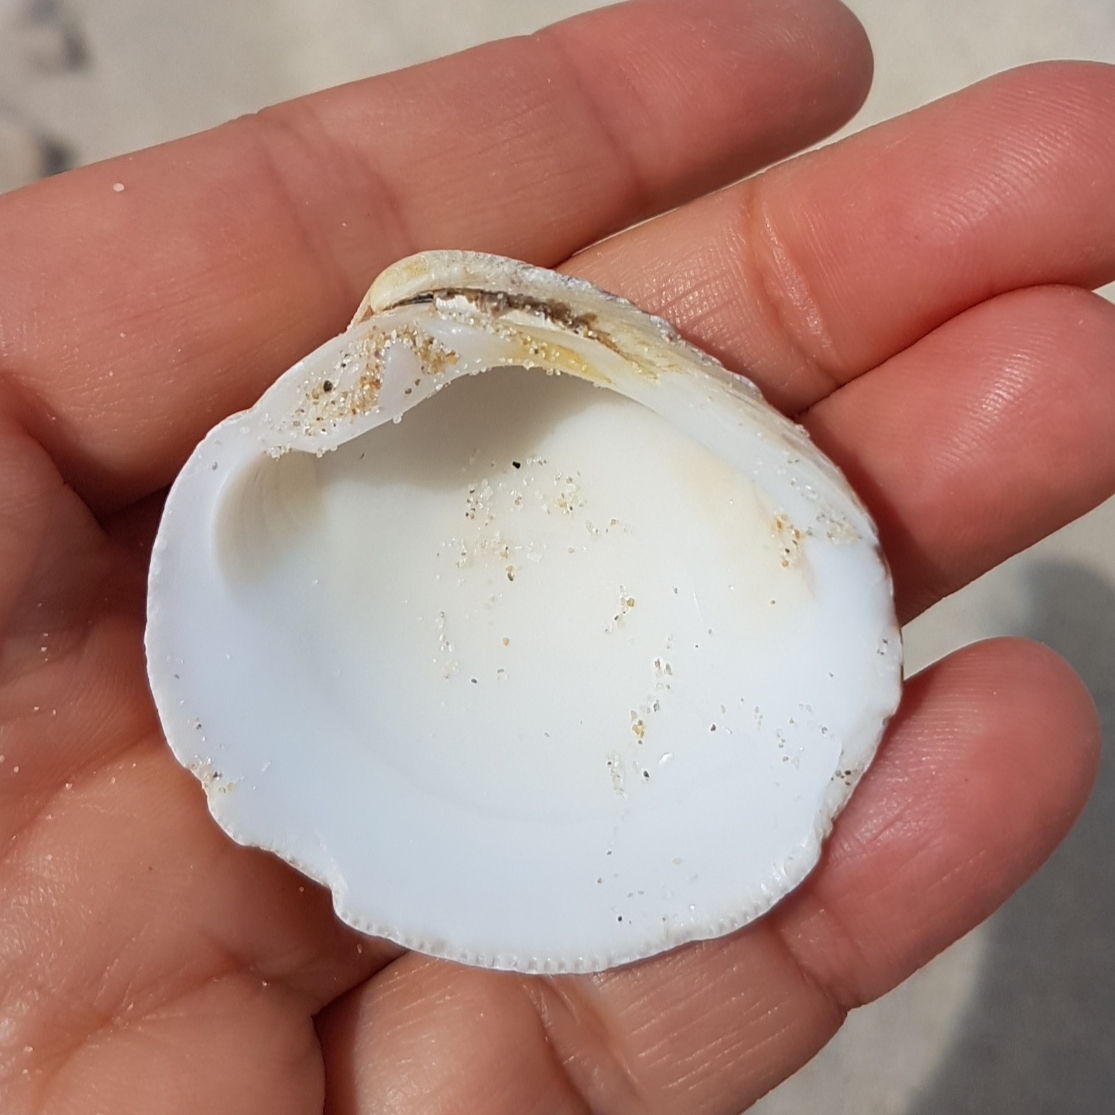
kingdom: Animalia
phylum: Mollusca
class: Bivalvia
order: Venerida
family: Veneridae
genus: Venus
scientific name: Venus verrucosa
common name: Warty venus
